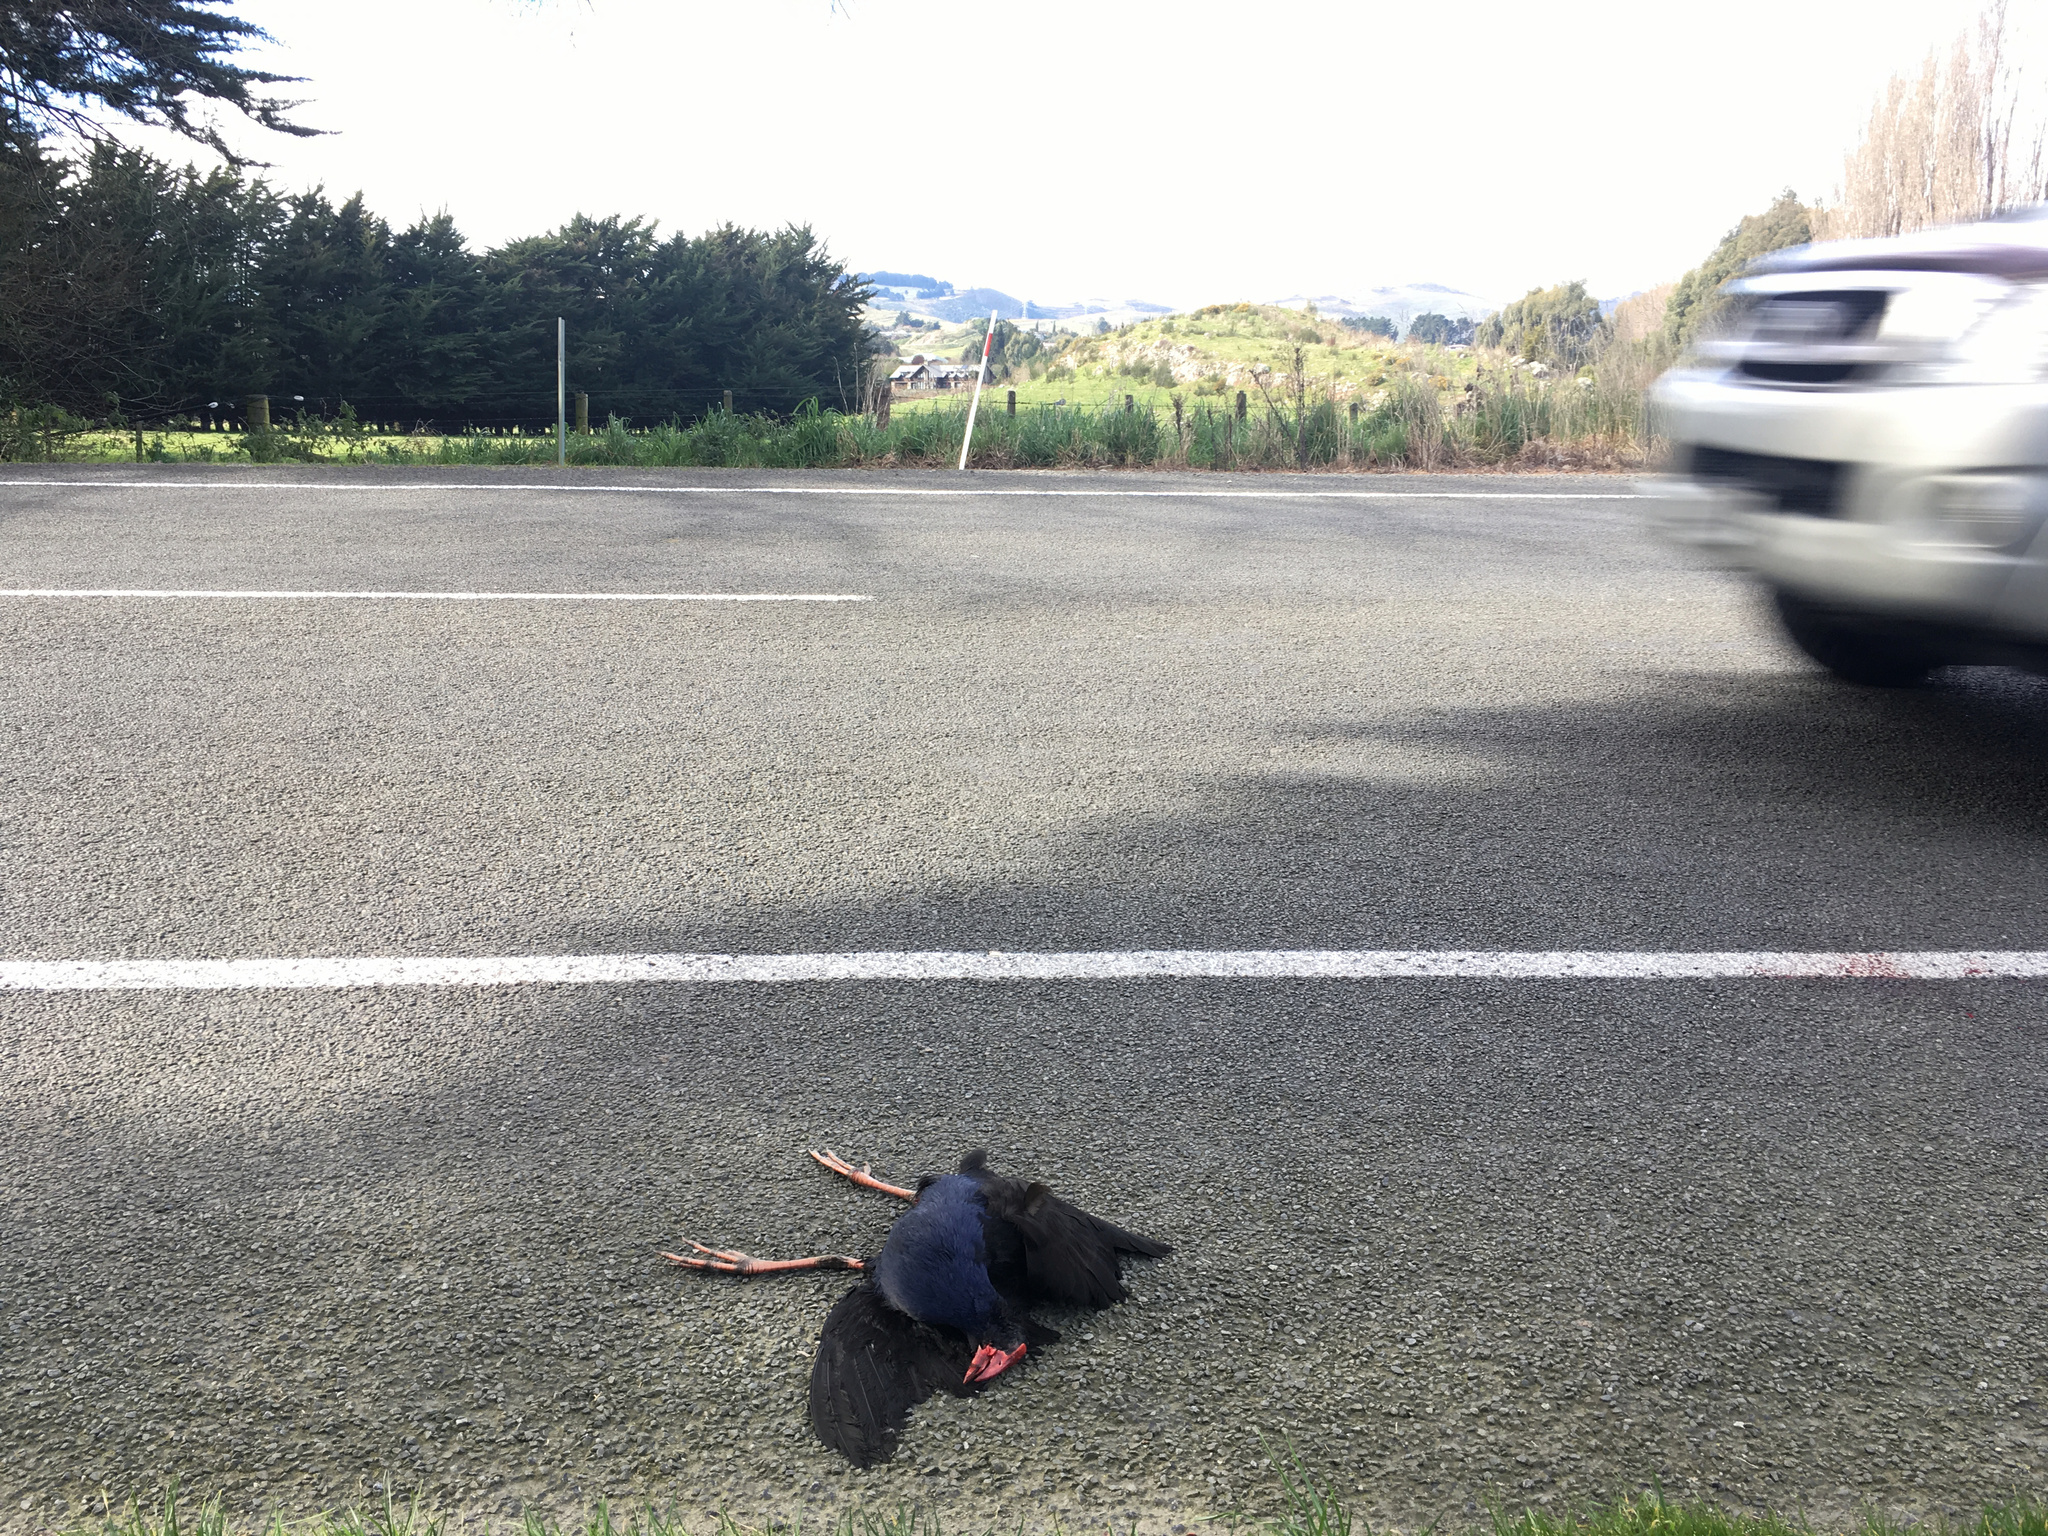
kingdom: Animalia
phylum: Chordata
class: Aves
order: Gruiformes
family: Rallidae
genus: Porphyrio
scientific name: Porphyrio melanotus
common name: Australasian swamphen
